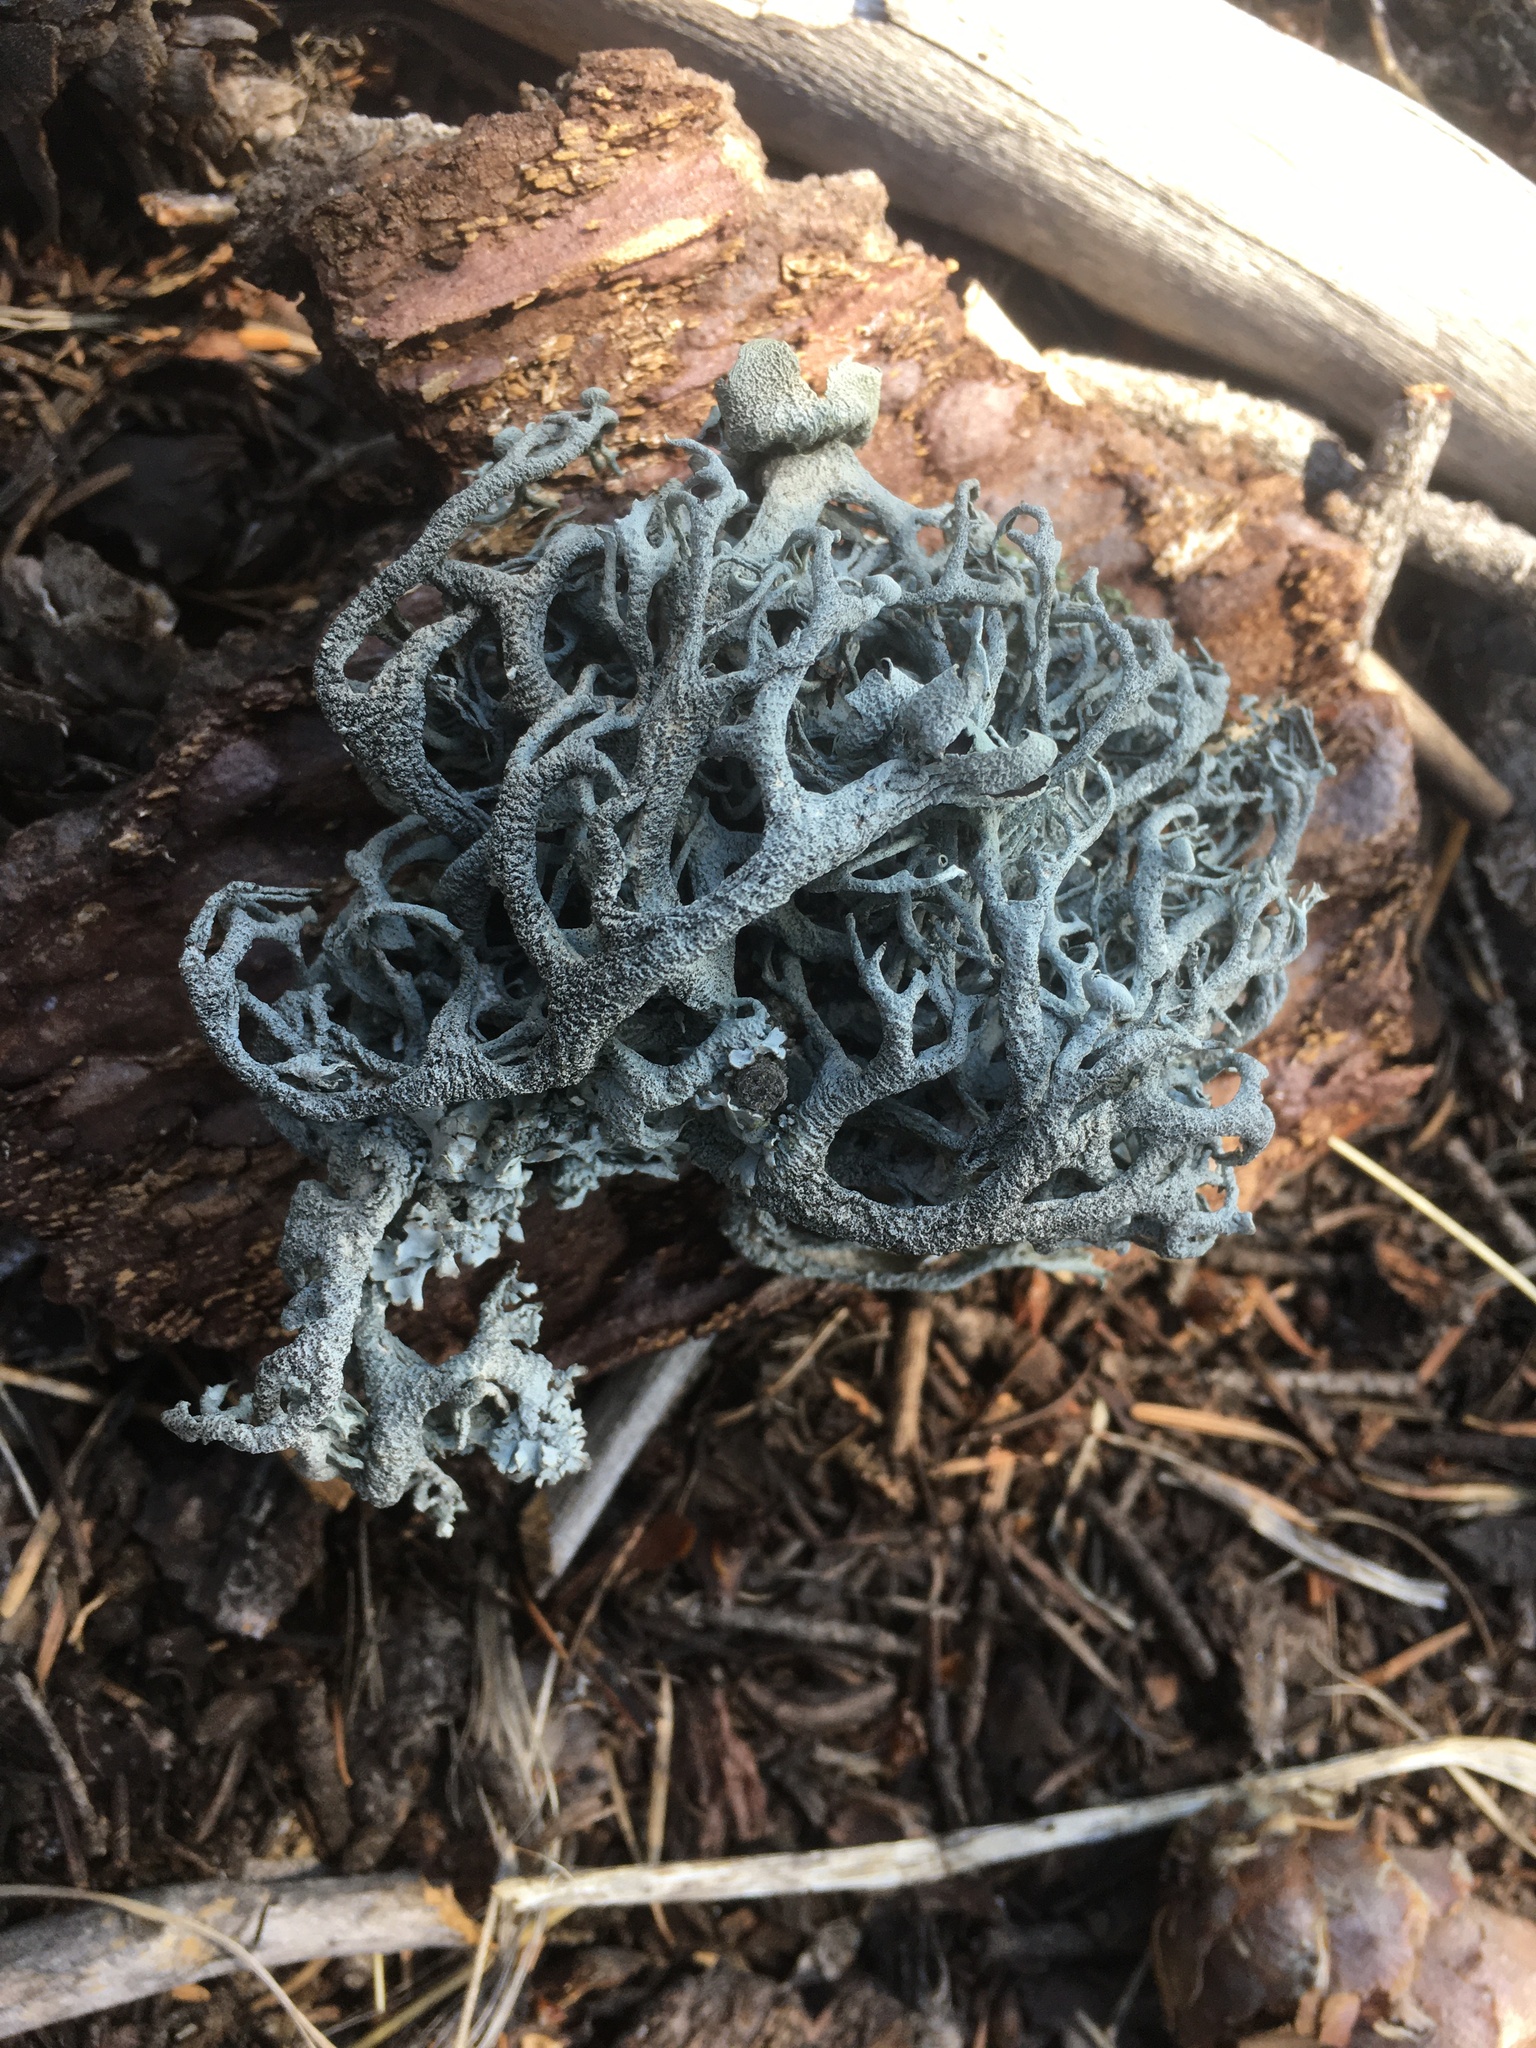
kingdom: Fungi
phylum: Ascomycota
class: Lecanoromycetes
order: Lecanorales
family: Parmeliaceae
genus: Pseudevernia
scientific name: Pseudevernia furfuracea
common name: Tree moss
